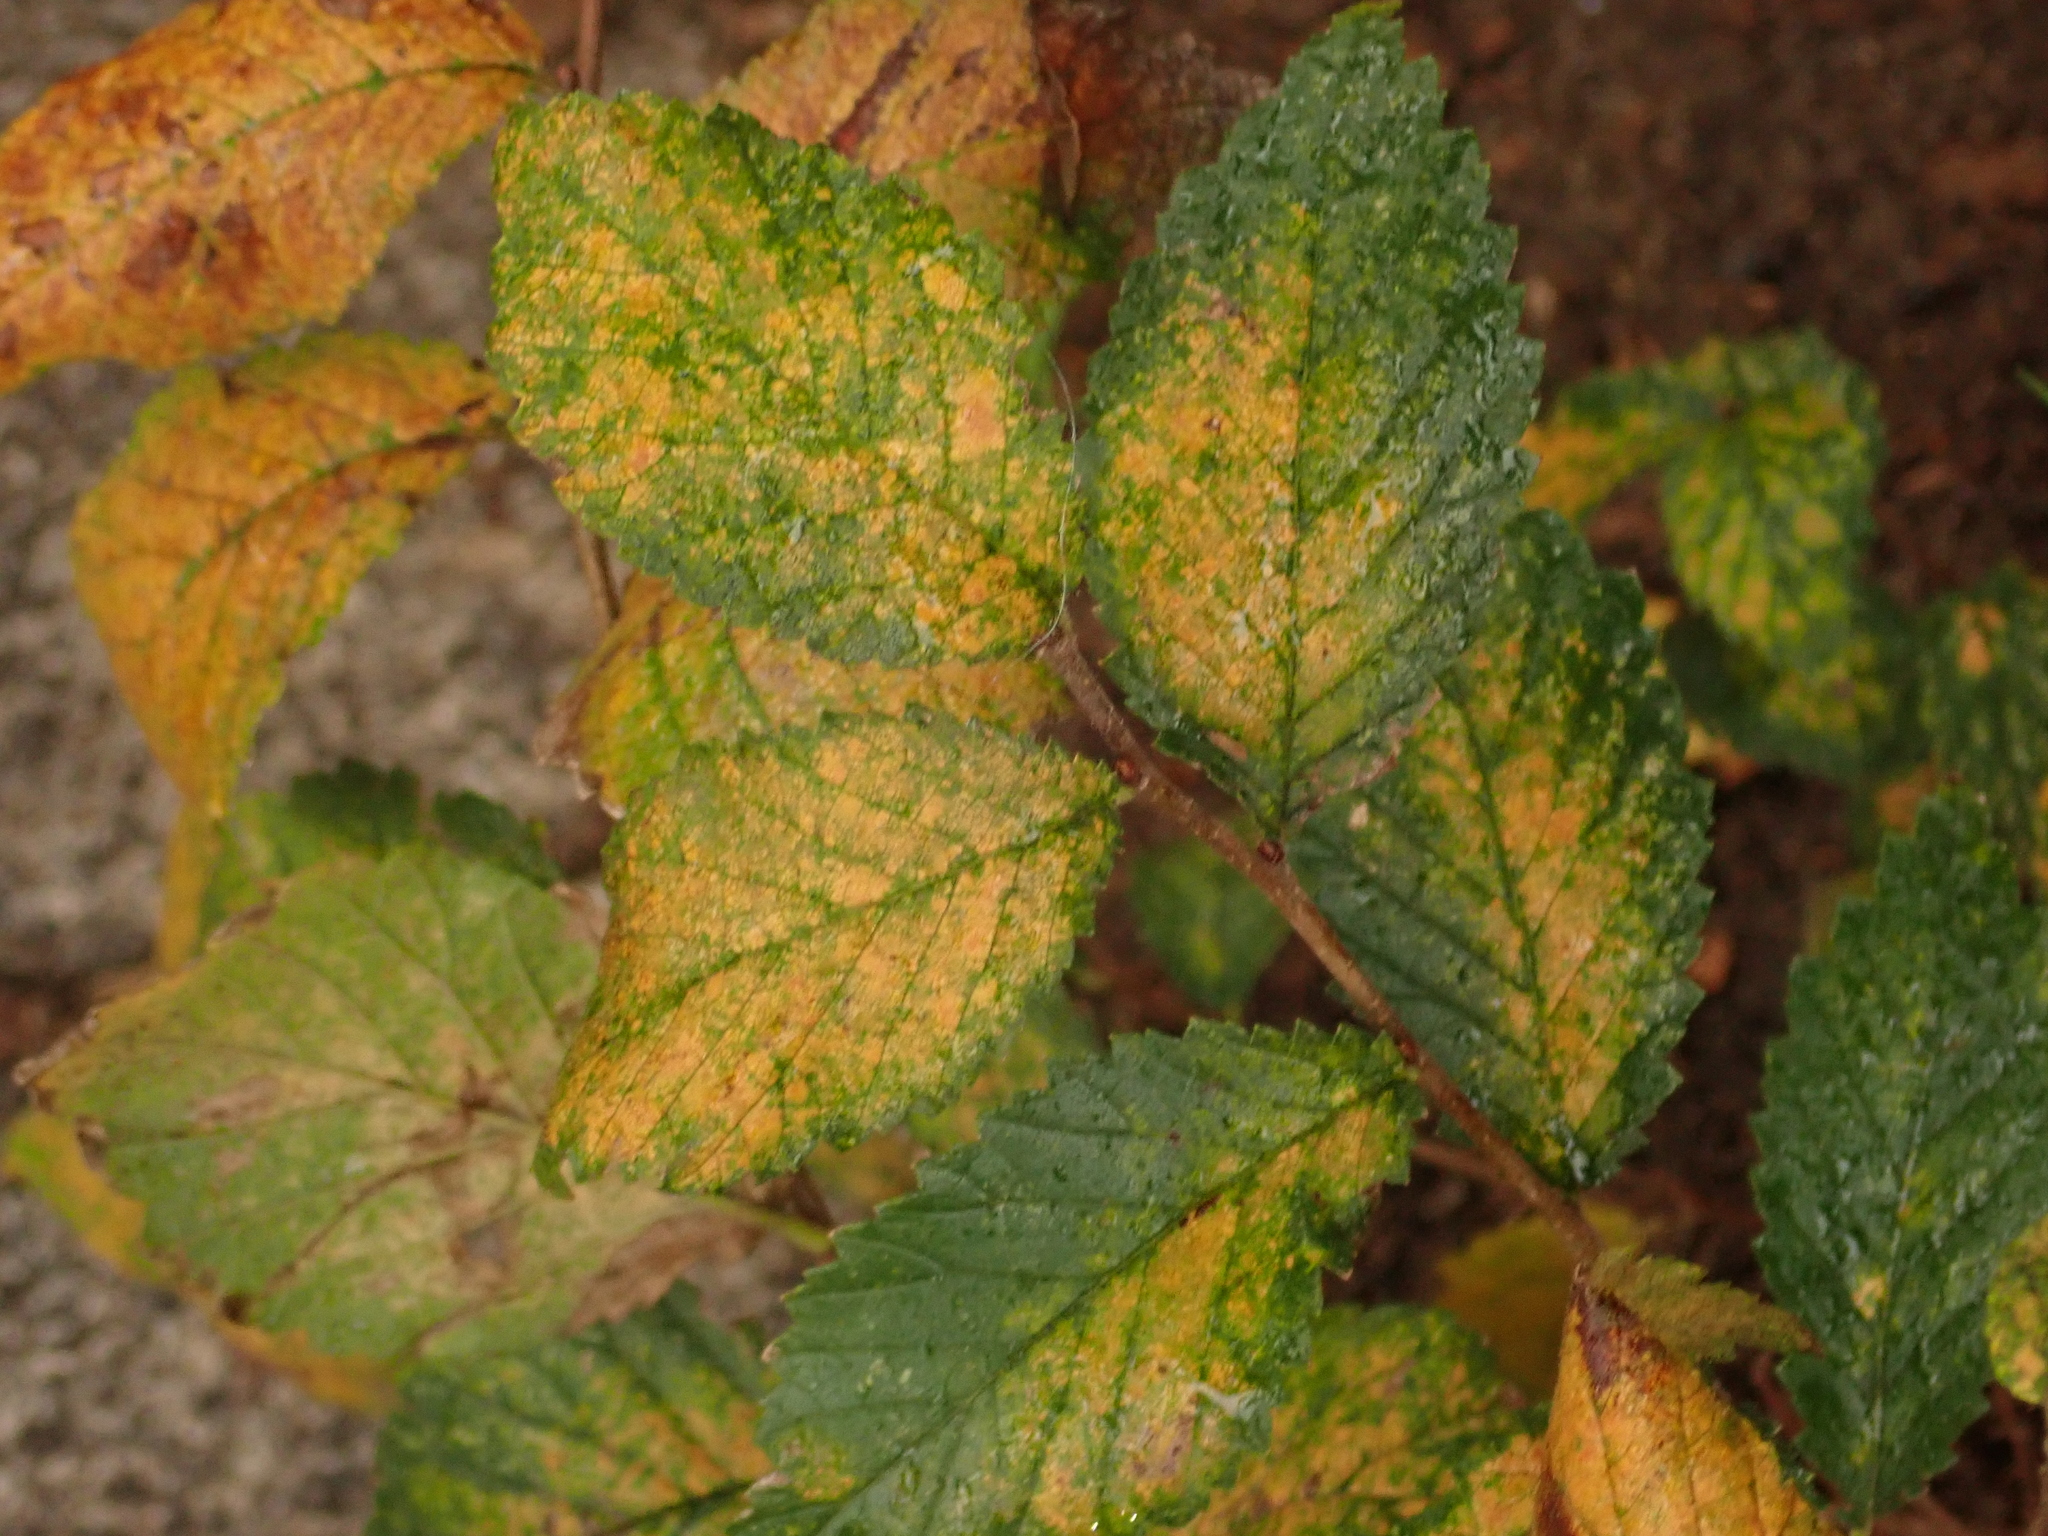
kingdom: Plantae
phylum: Tracheophyta
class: Magnoliopsida
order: Rosales
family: Ulmaceae
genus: Ulmus
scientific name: Ulmus minor
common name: Small-leaved elm
